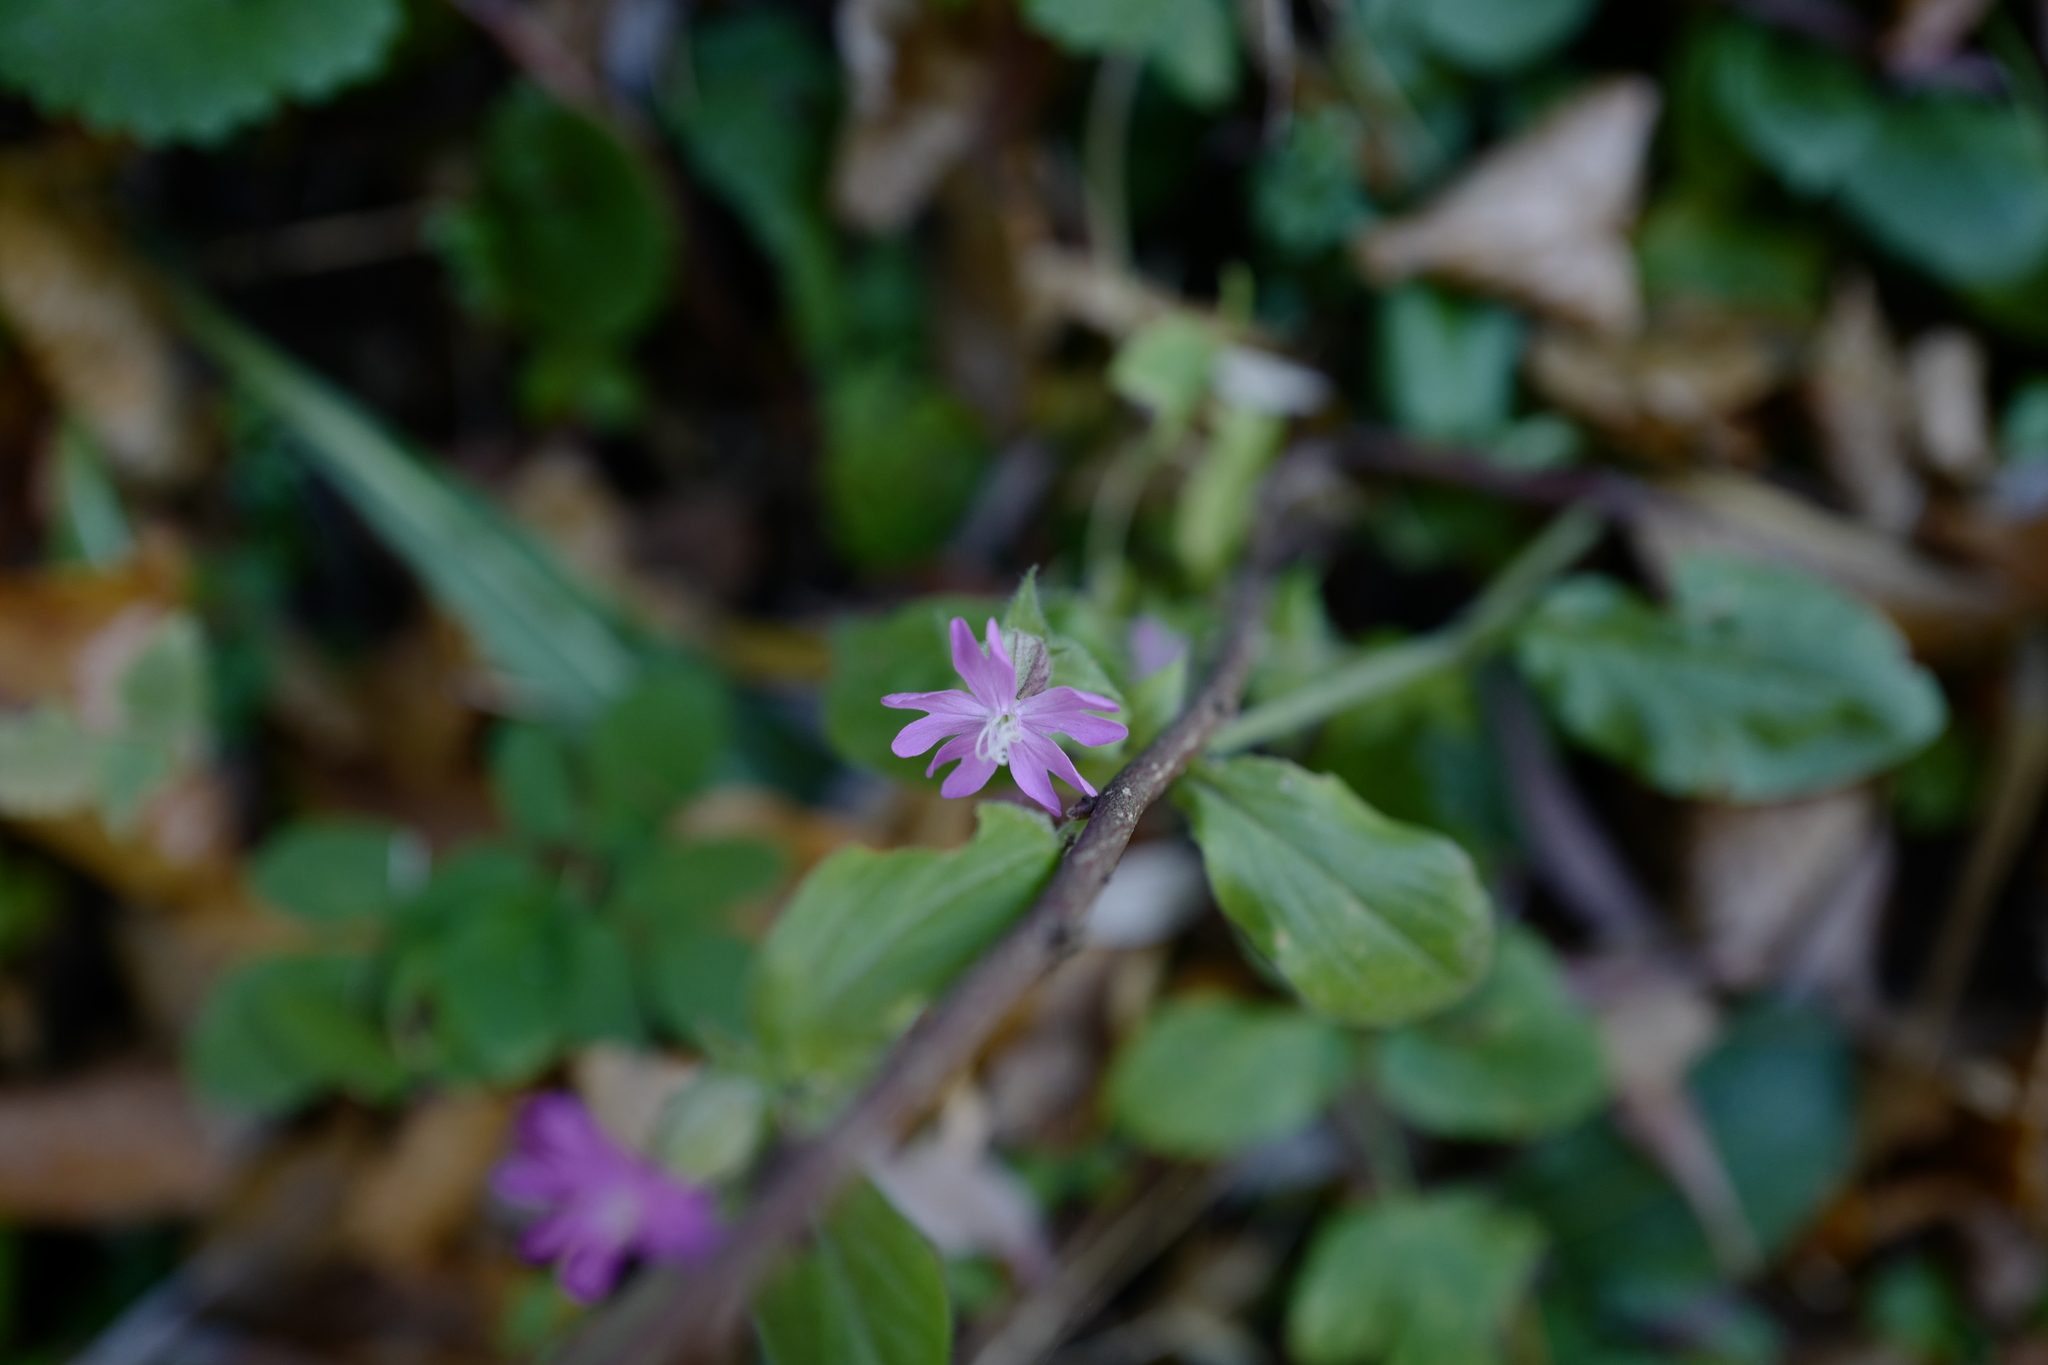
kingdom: Plantae
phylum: Tracheophyta
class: Magnoliopsida
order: Caryophyllales
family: Caryophyllaceae
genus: Silene
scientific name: Silene dioica
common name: Red campion
